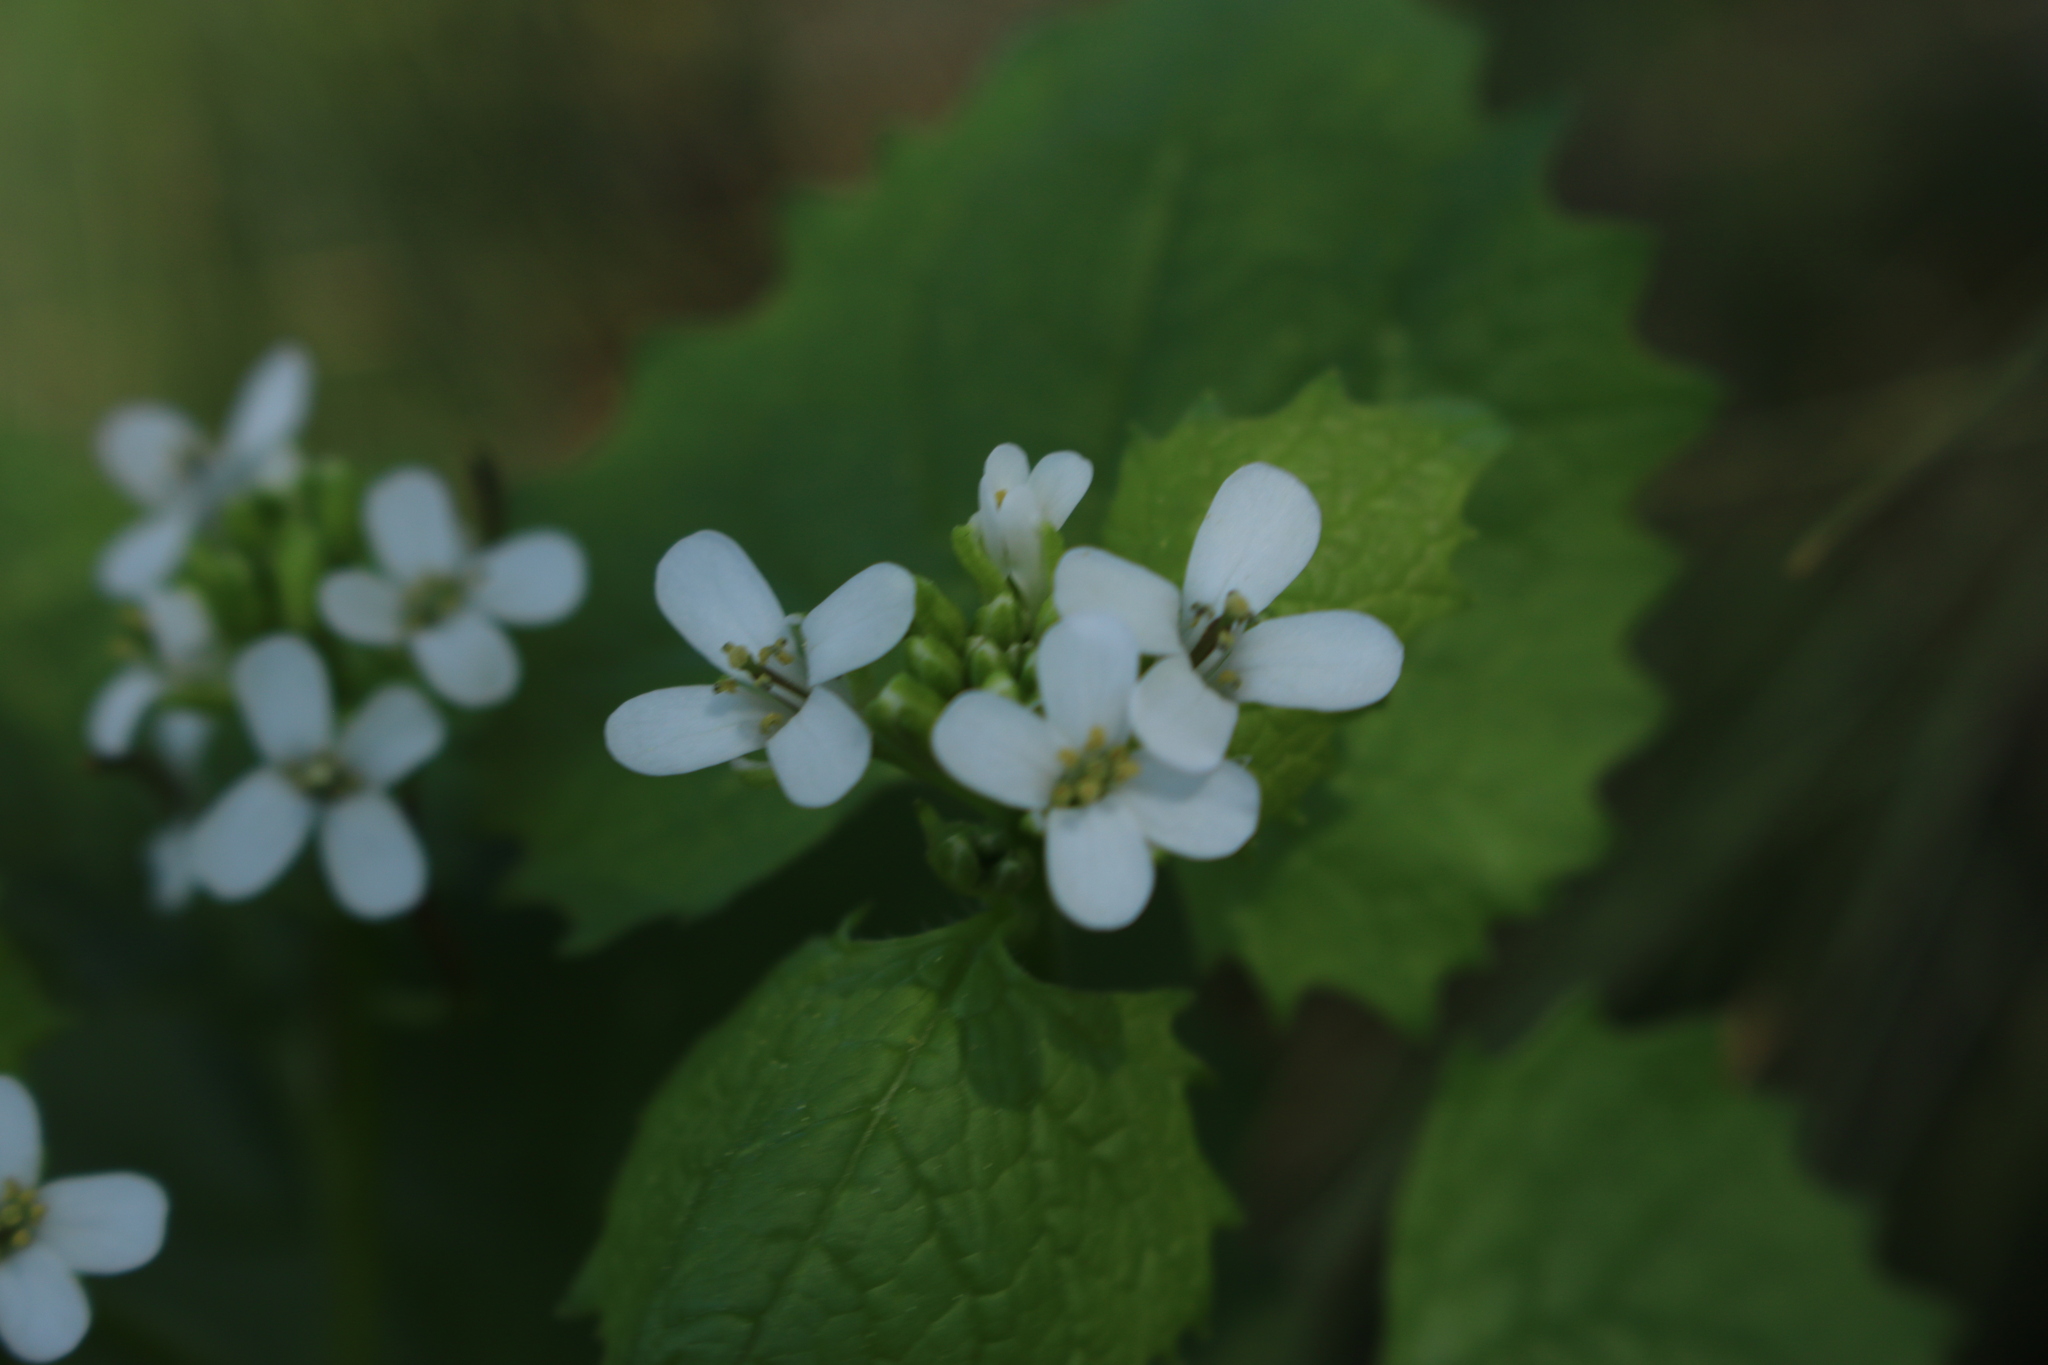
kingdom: Plantae
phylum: Tracheophyta
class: Magnoliopsida
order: Brassicales
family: Brassicaceae
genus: Alliaria
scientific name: Alliaria petiolata
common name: Garlic mustard
